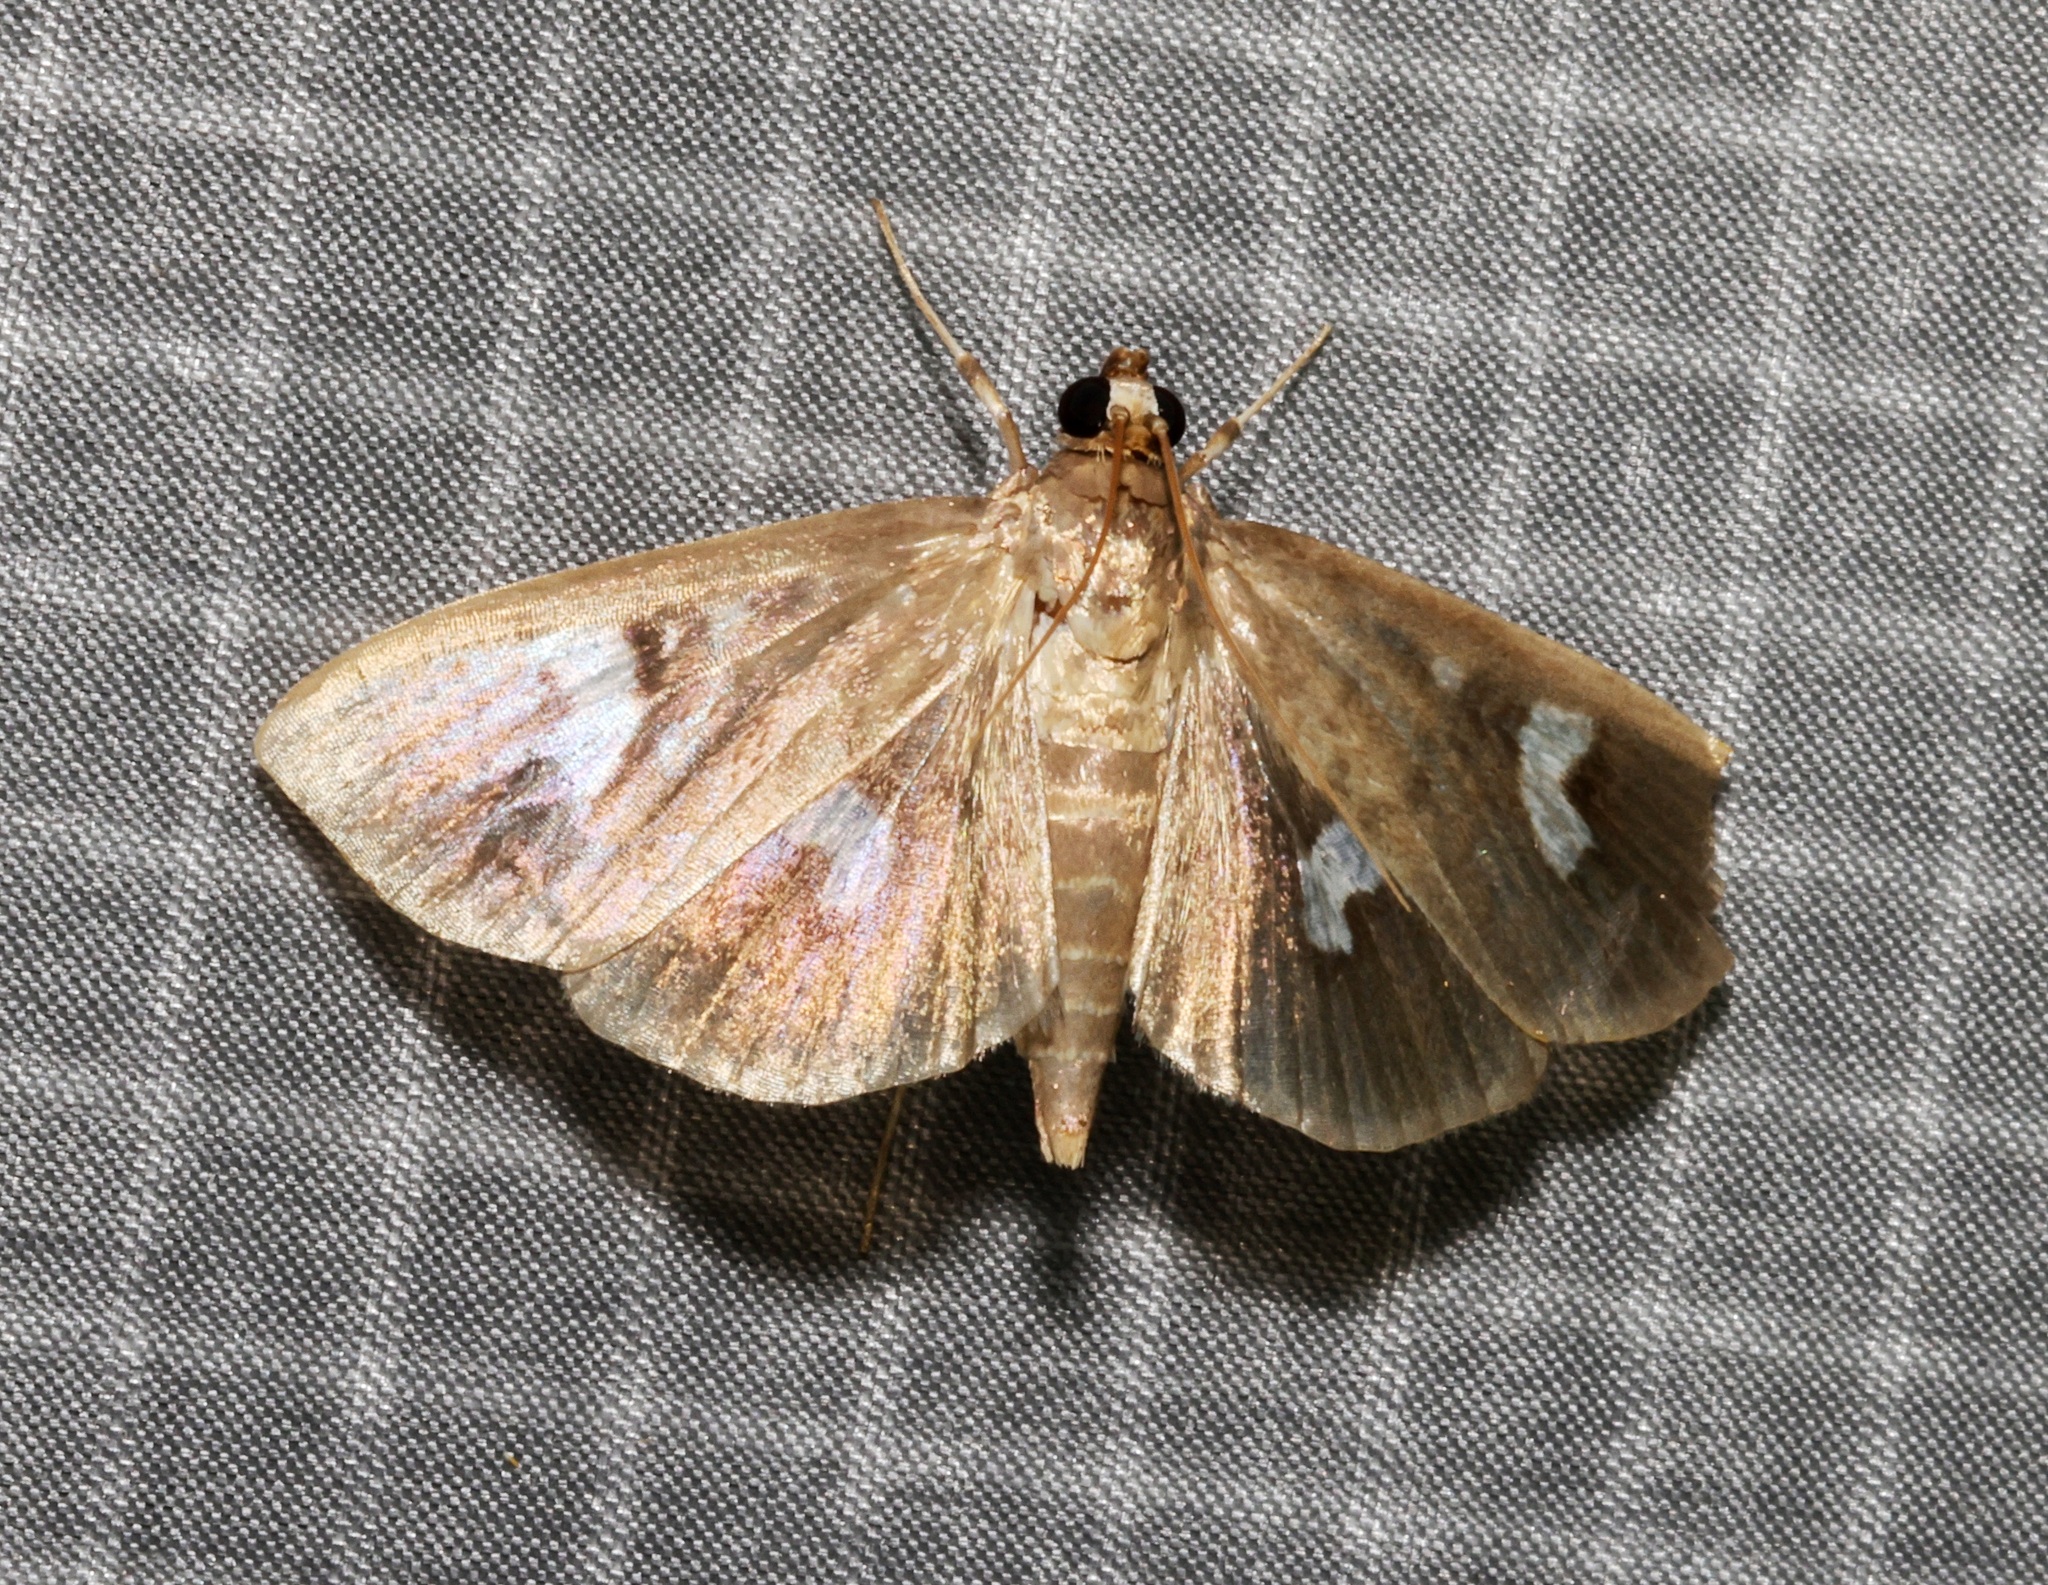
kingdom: Animalia
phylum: Arthropoda
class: Insecta
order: Lepidoptera
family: Crambidae
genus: Nagiella
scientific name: Nagiella inferior
